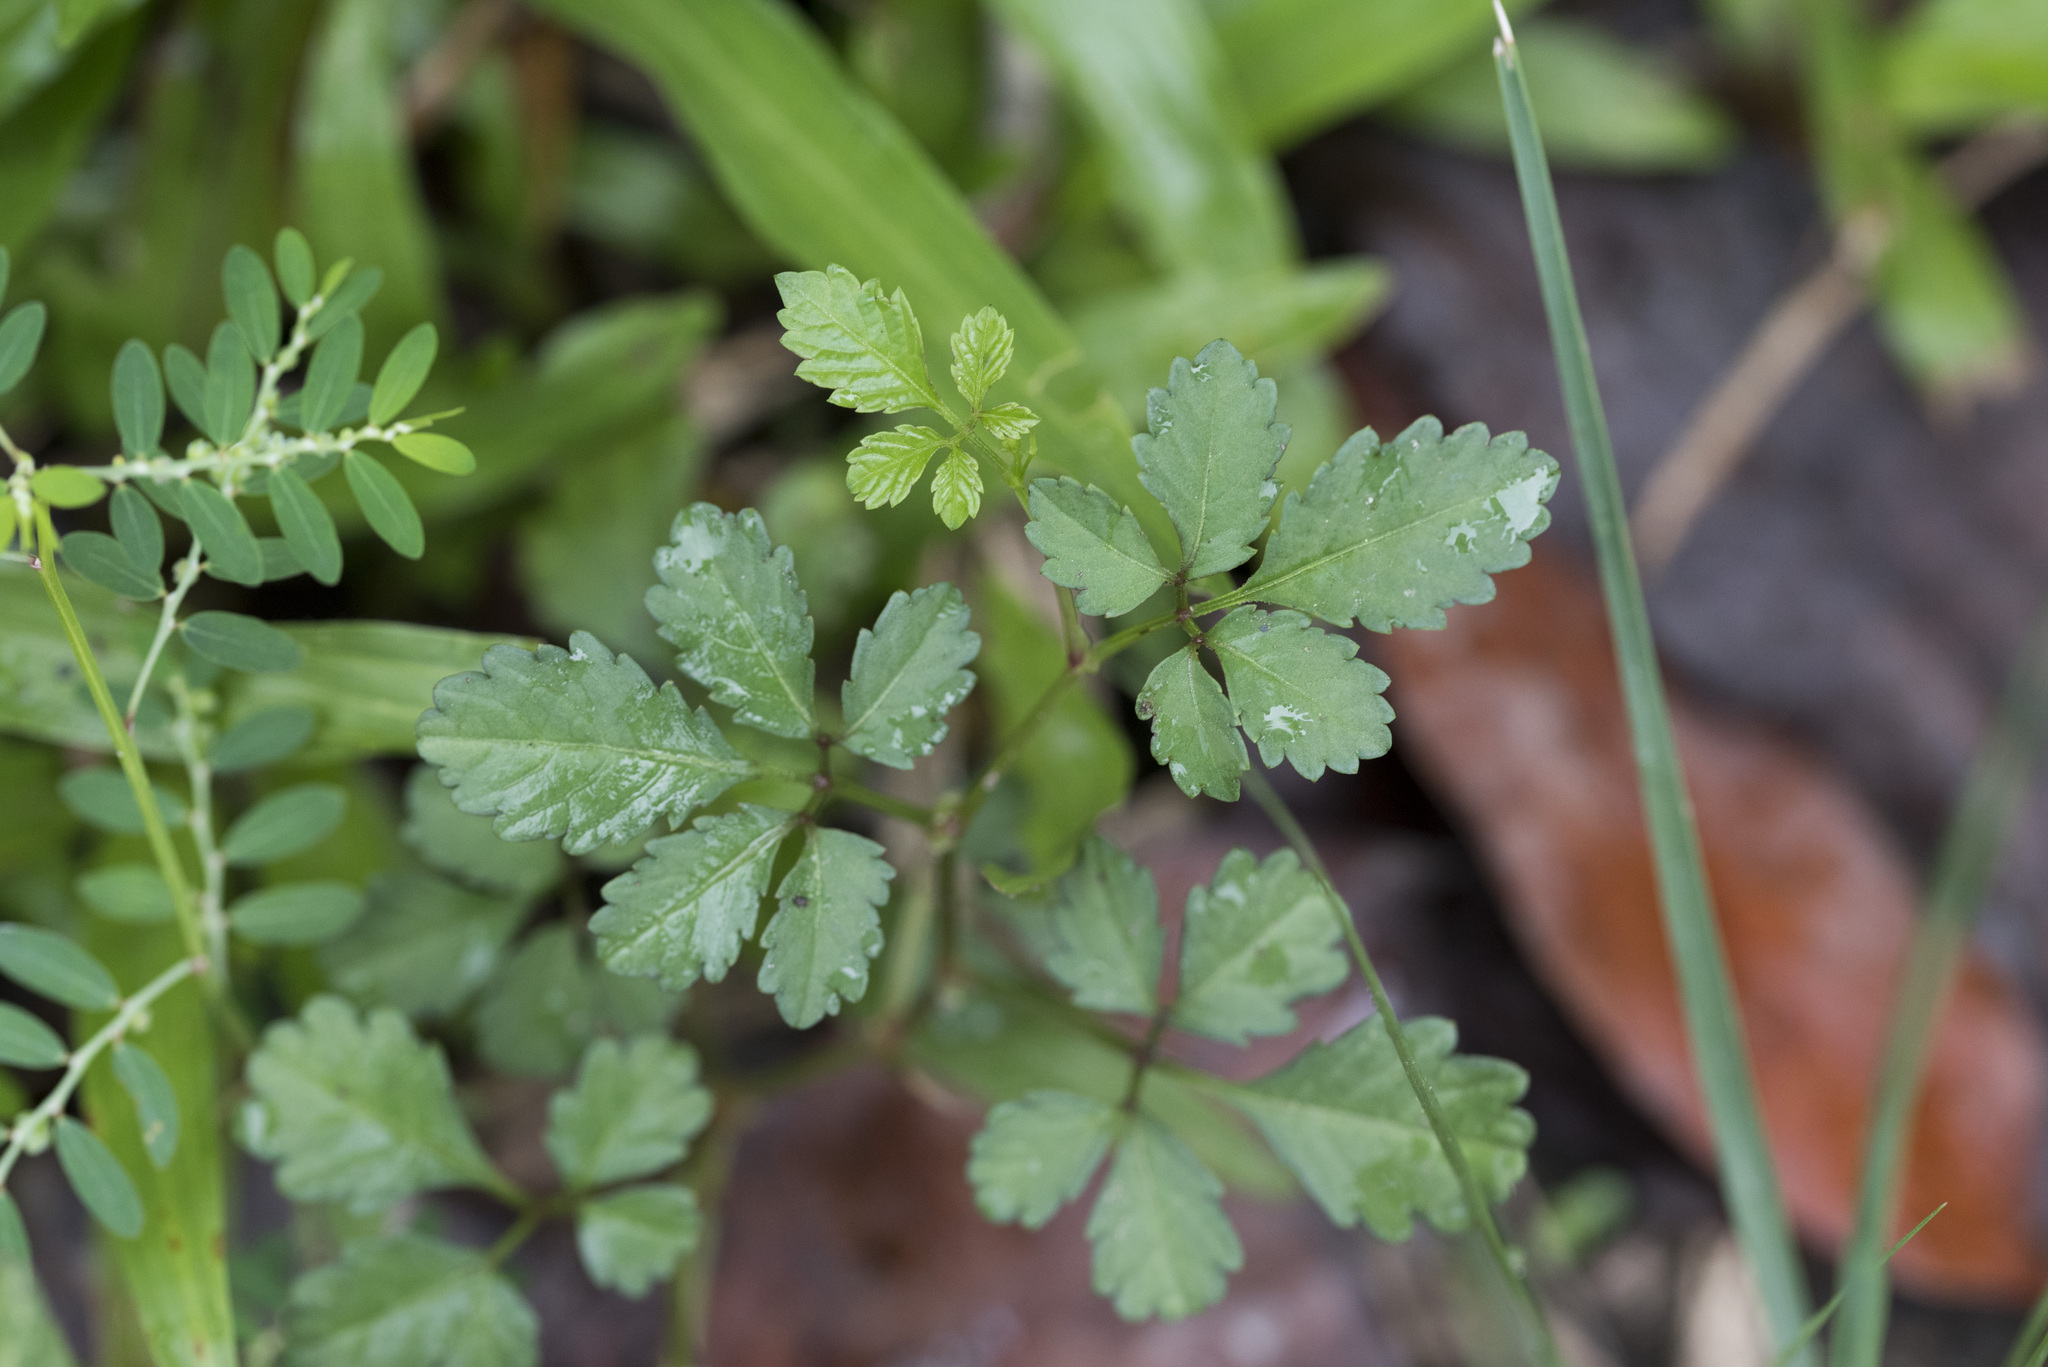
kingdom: Plantae
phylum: Tracheophyta
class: Magnoliopsida
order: Vitales
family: Vitaceae
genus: Causonis
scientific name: Causonis japonica
